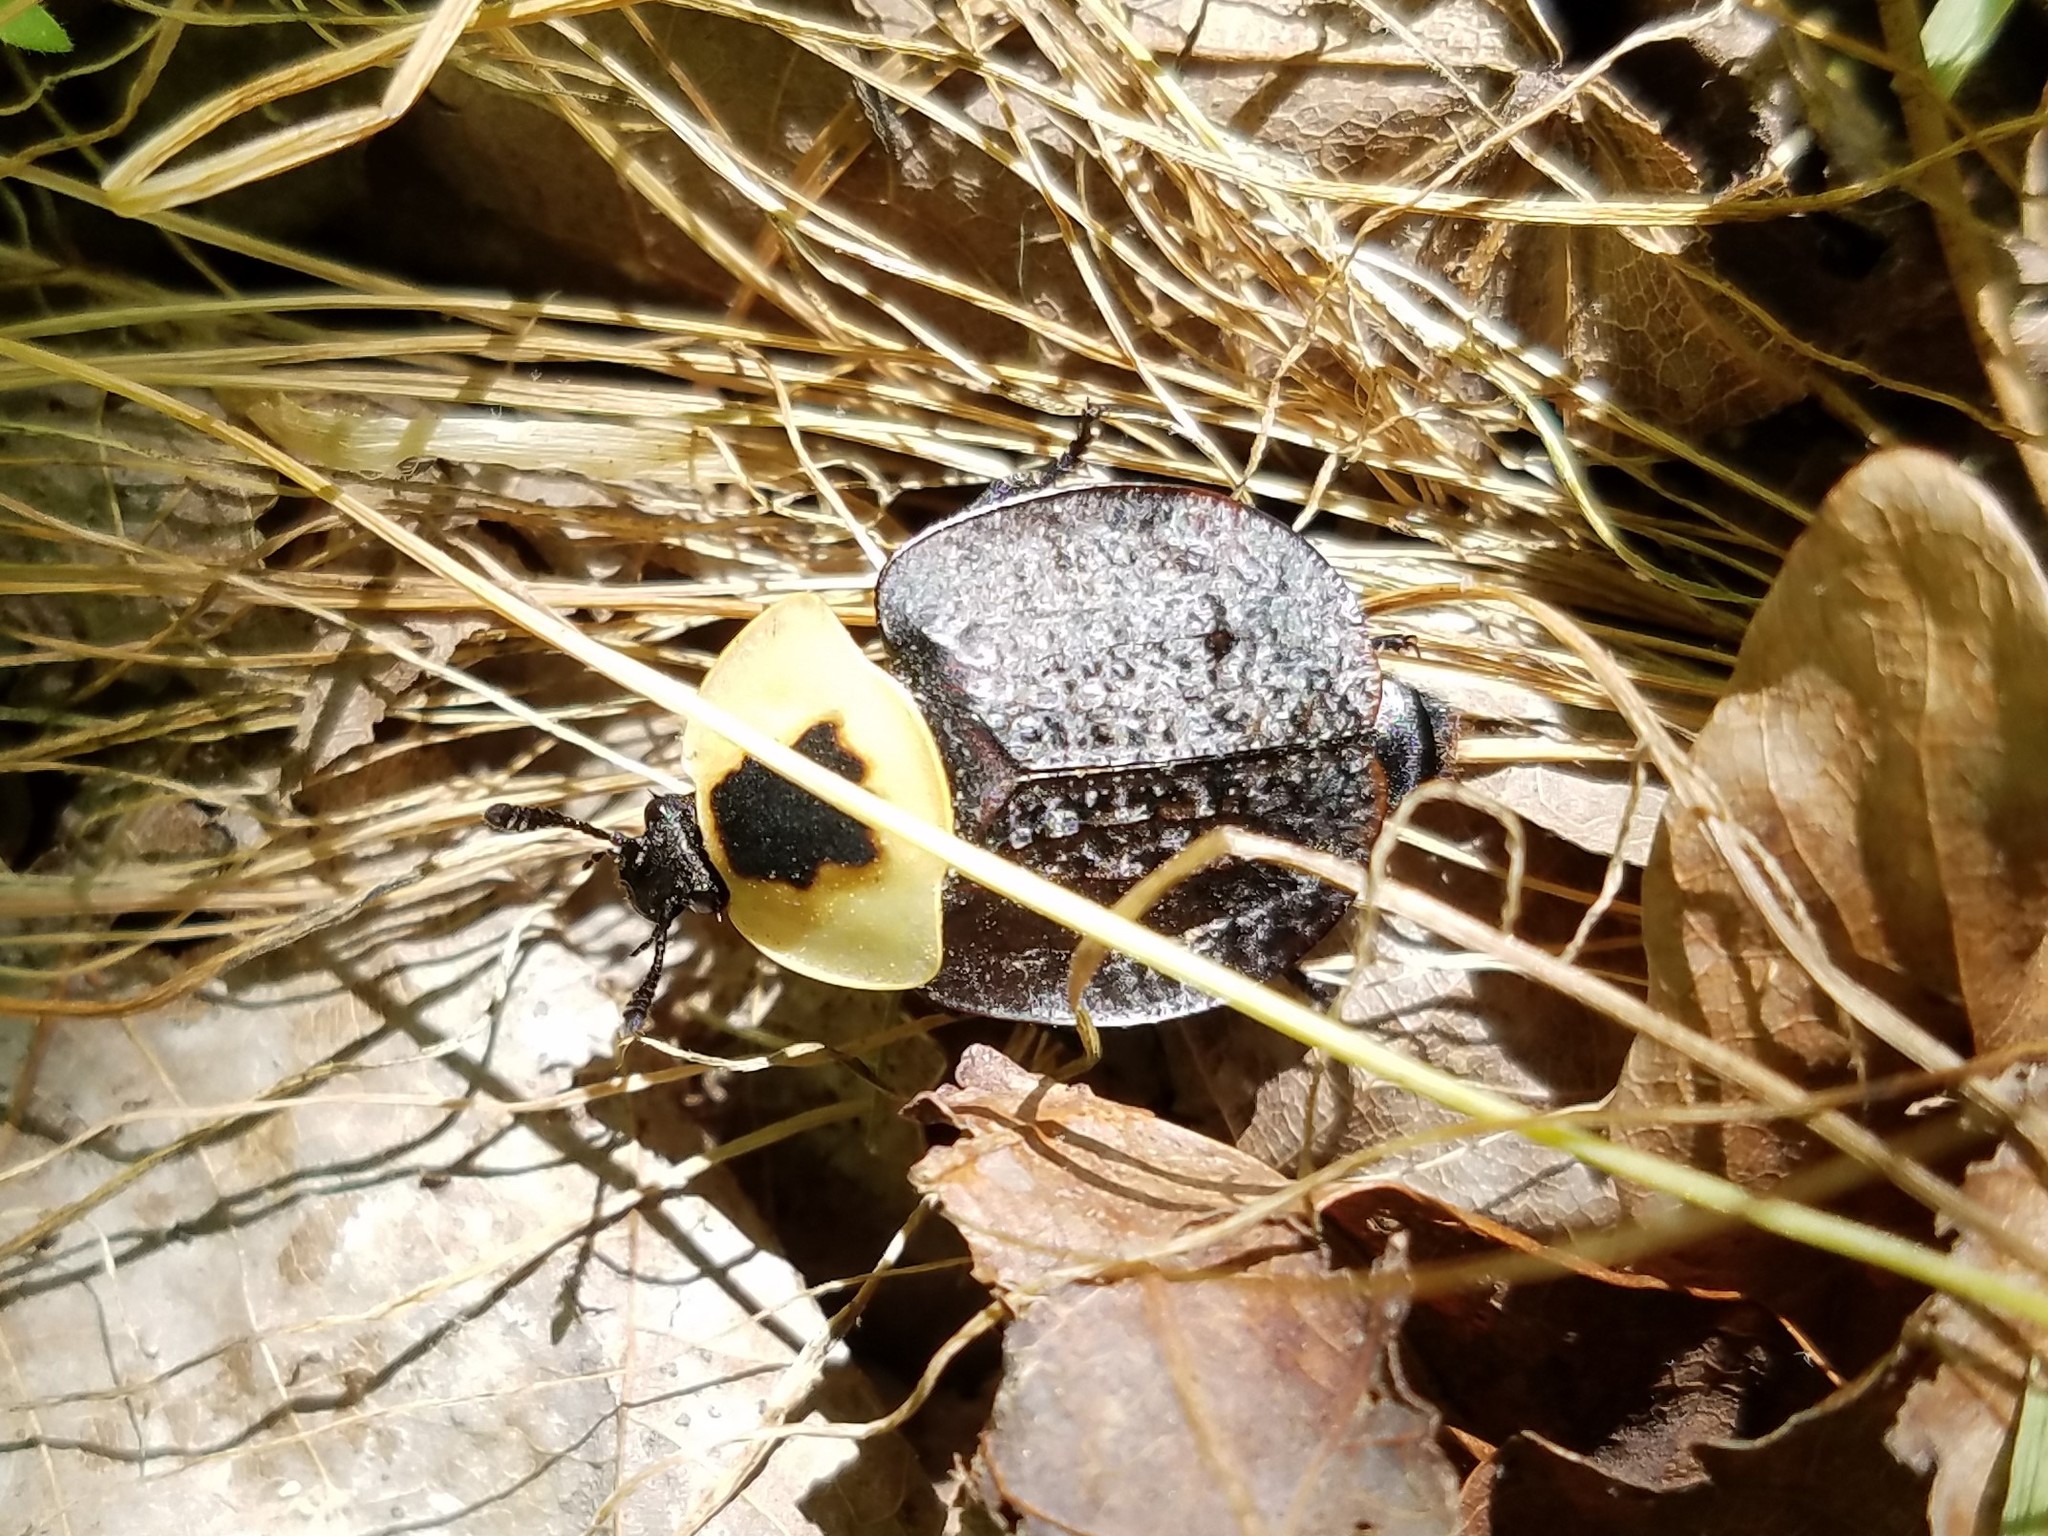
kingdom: Animalia
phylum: Arthropoda
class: Insecta
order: Coleoptera
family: Staphylinidae
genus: Necrophila
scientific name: Necrophila americana
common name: American carrion beetle
